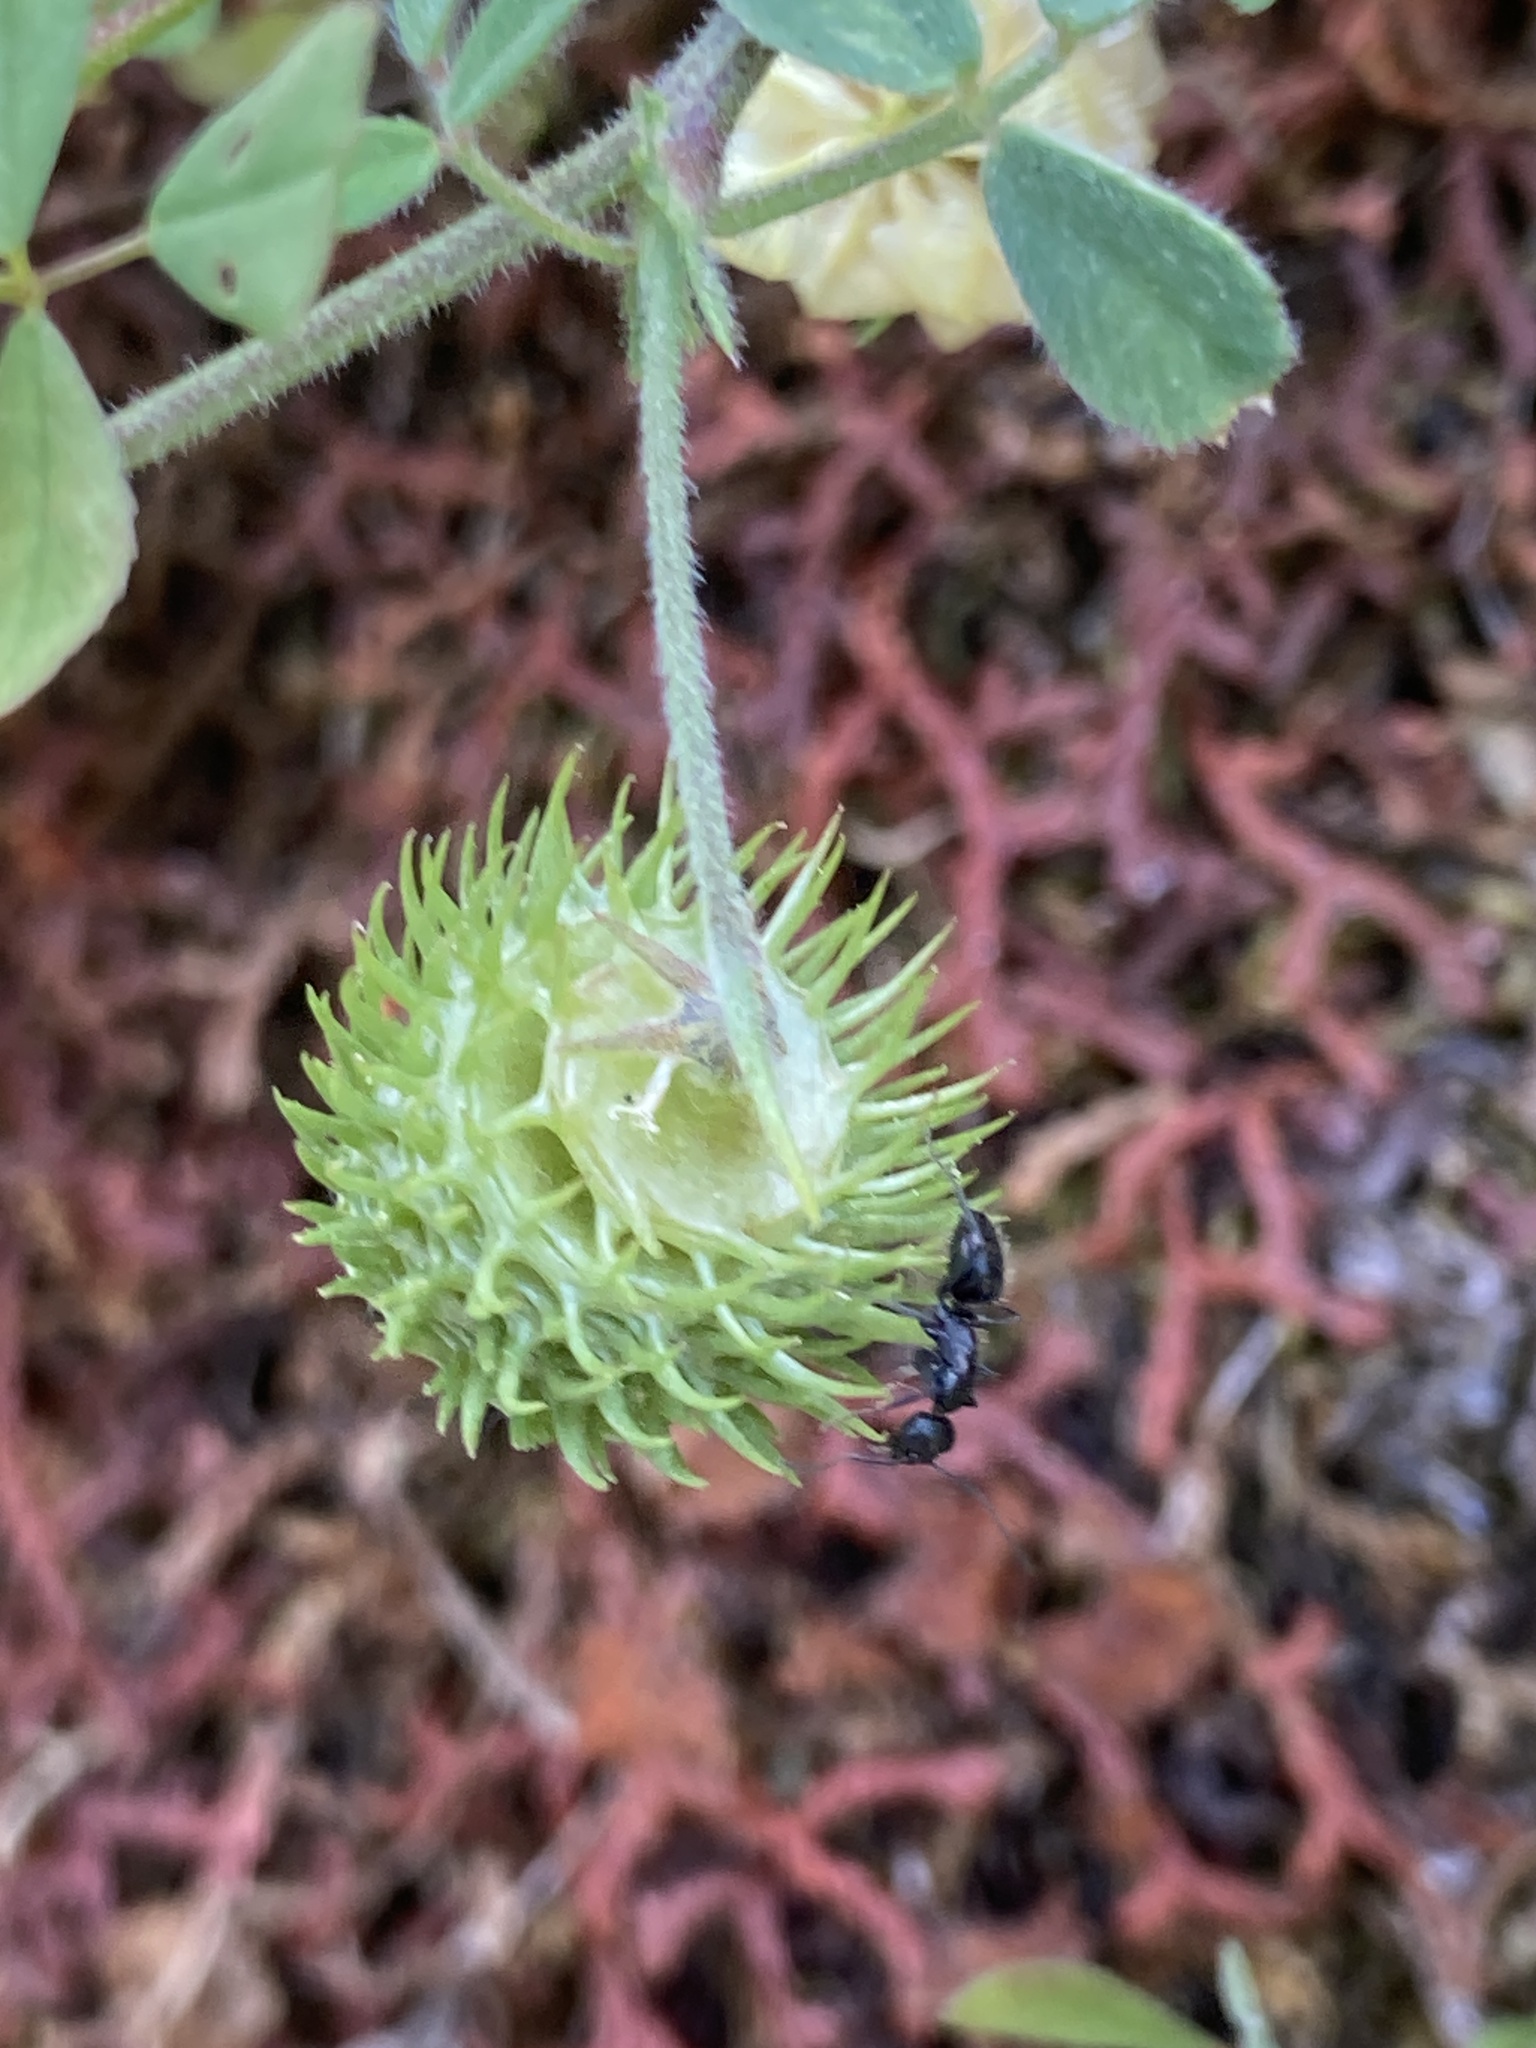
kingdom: Plantae
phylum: Tracheophyta
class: Magnoliopsida
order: Fabales
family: Fabaceae
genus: Medicago
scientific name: Medicago polymorpha
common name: Burclover
